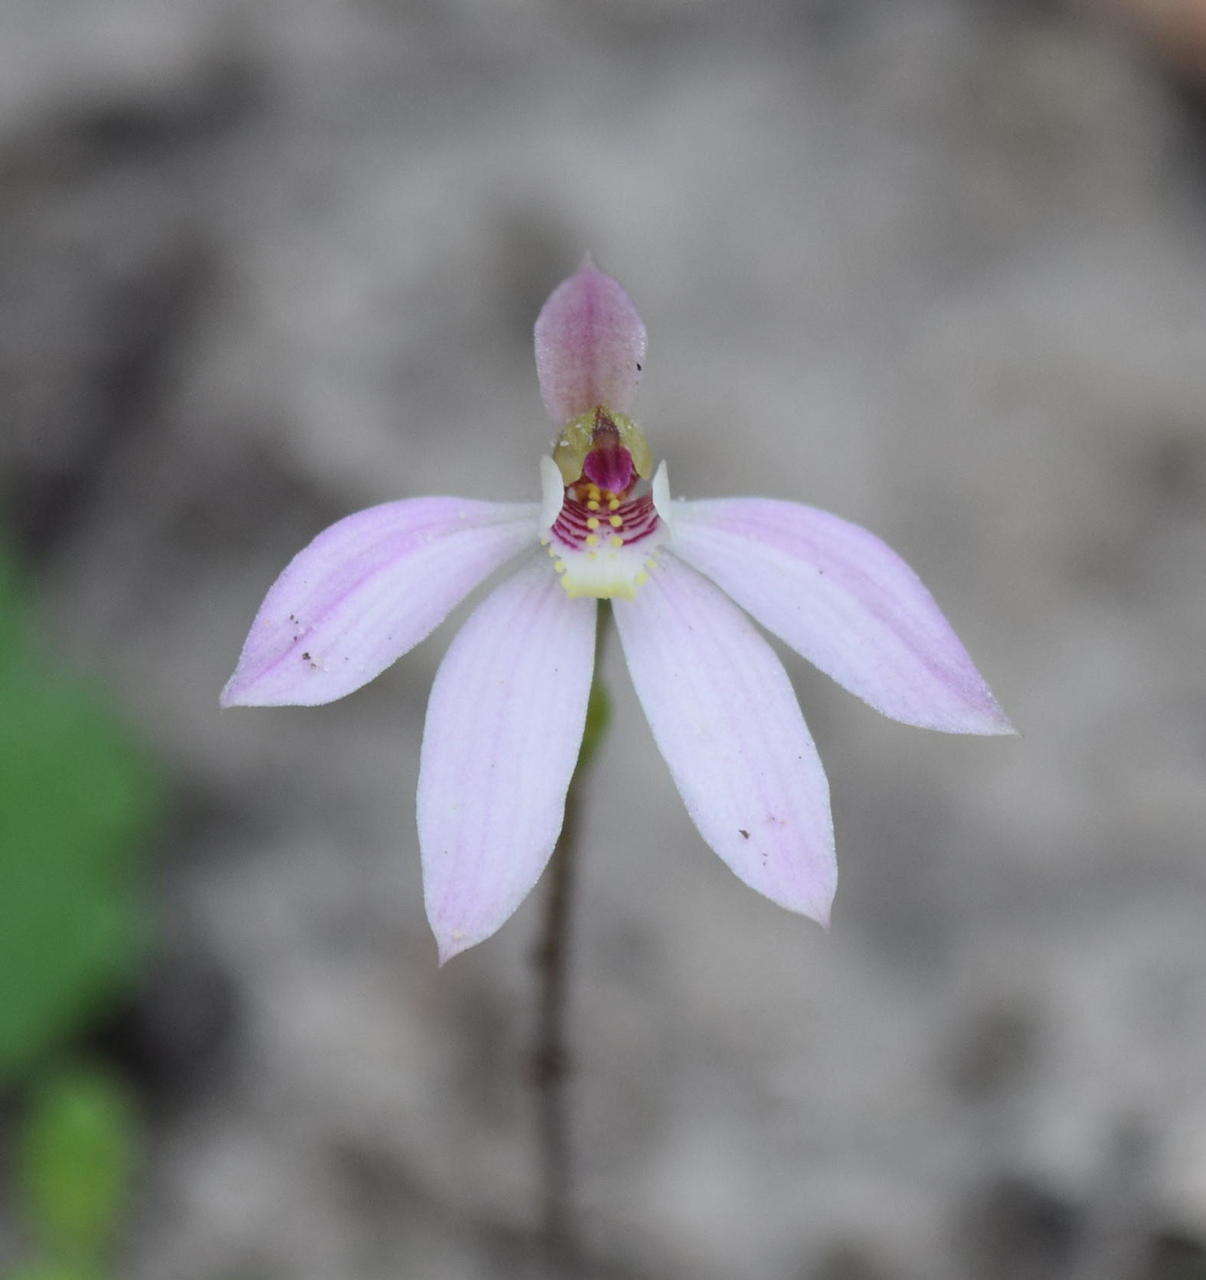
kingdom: Plantae
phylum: Tracheophyta
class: Liliopsida
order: Asparagales
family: Orchidaceae
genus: Caladenia
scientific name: Caladenia carnea
